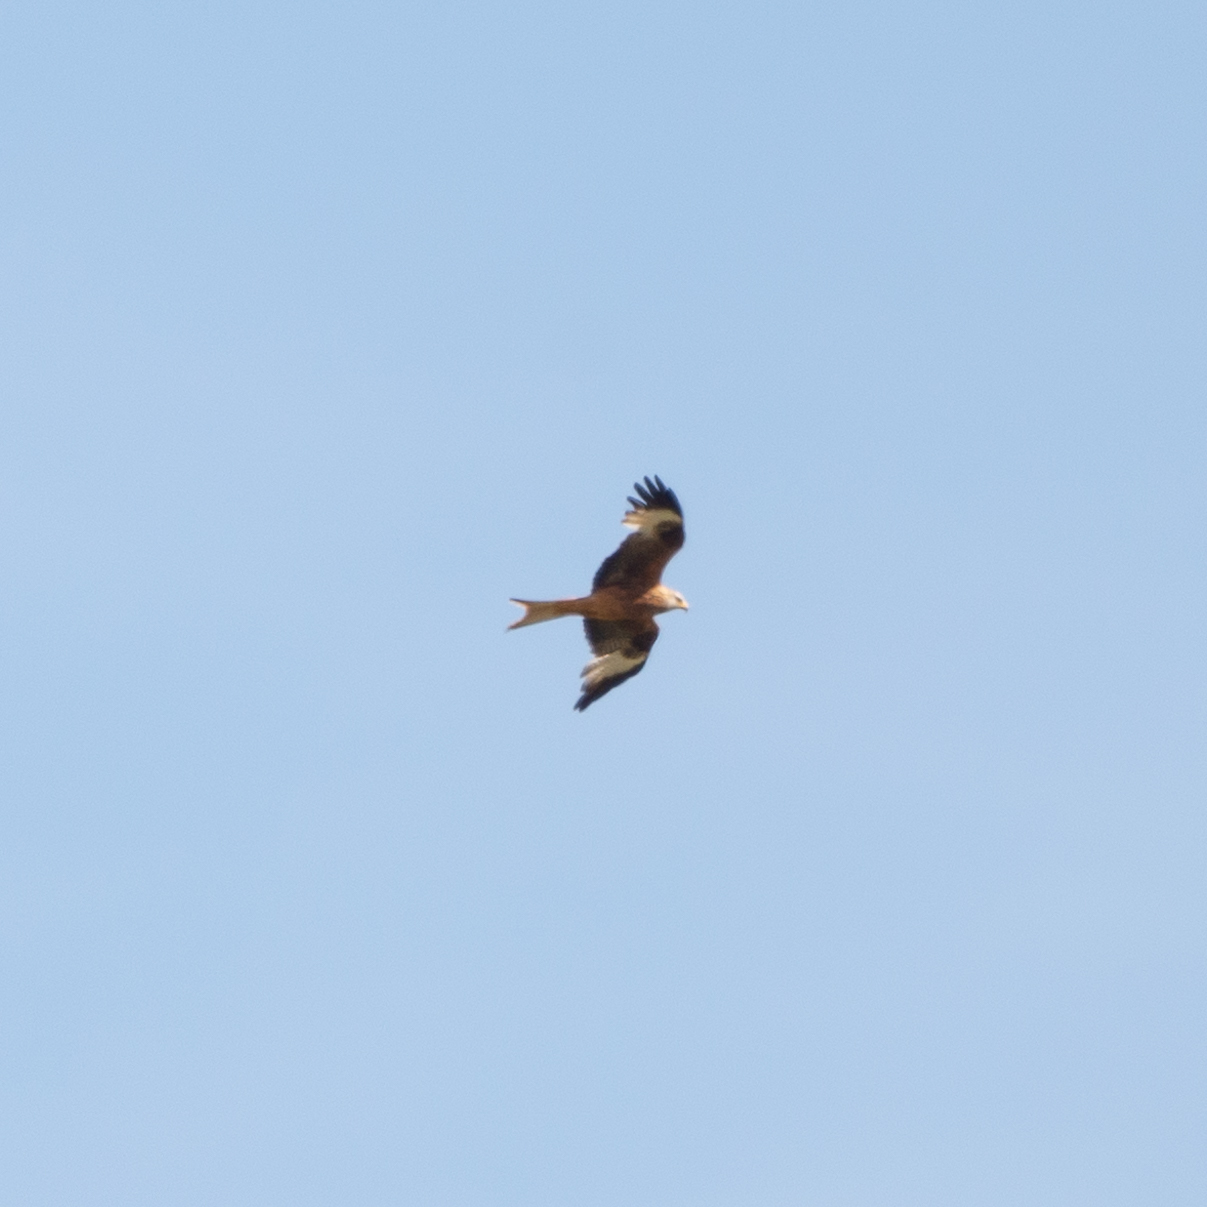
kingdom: Animalia
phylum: Chordata
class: Aves
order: Accipitriformes
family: Accipitridae
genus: Milvus
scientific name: Milvus milvus
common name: Red kite
